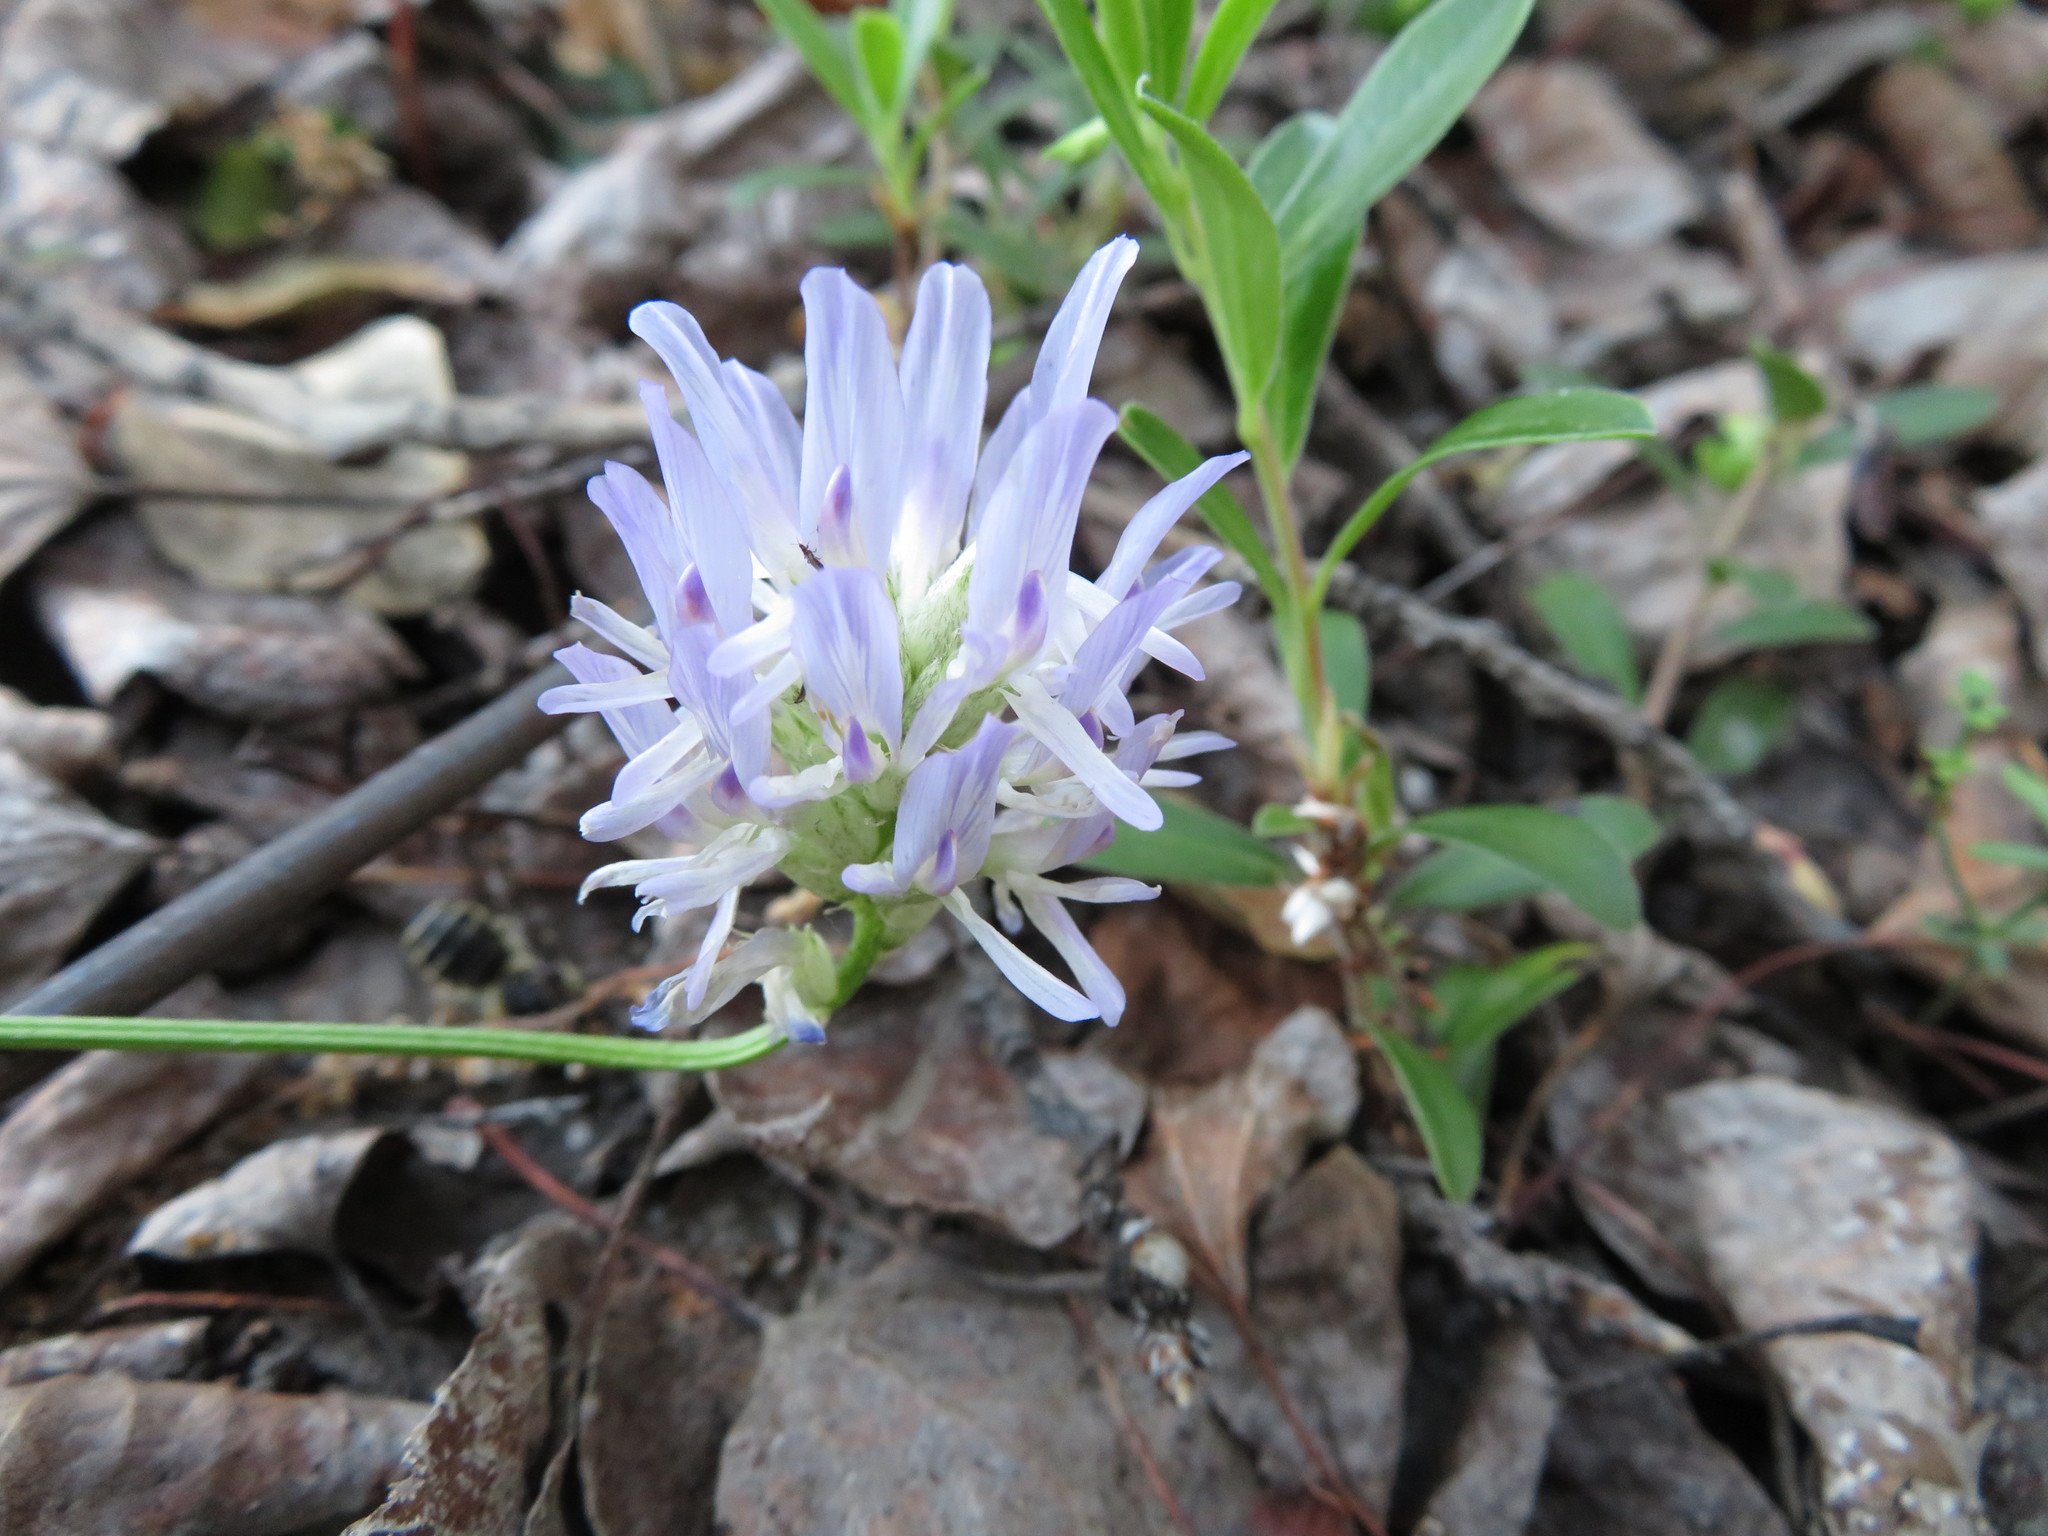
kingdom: Plantae
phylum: Tracheophyta
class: Magnoliopsida
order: Fabales
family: Fabaceae
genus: Astragalus
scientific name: Astragalus laxmannii
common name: Laxmann's milk-vetch
